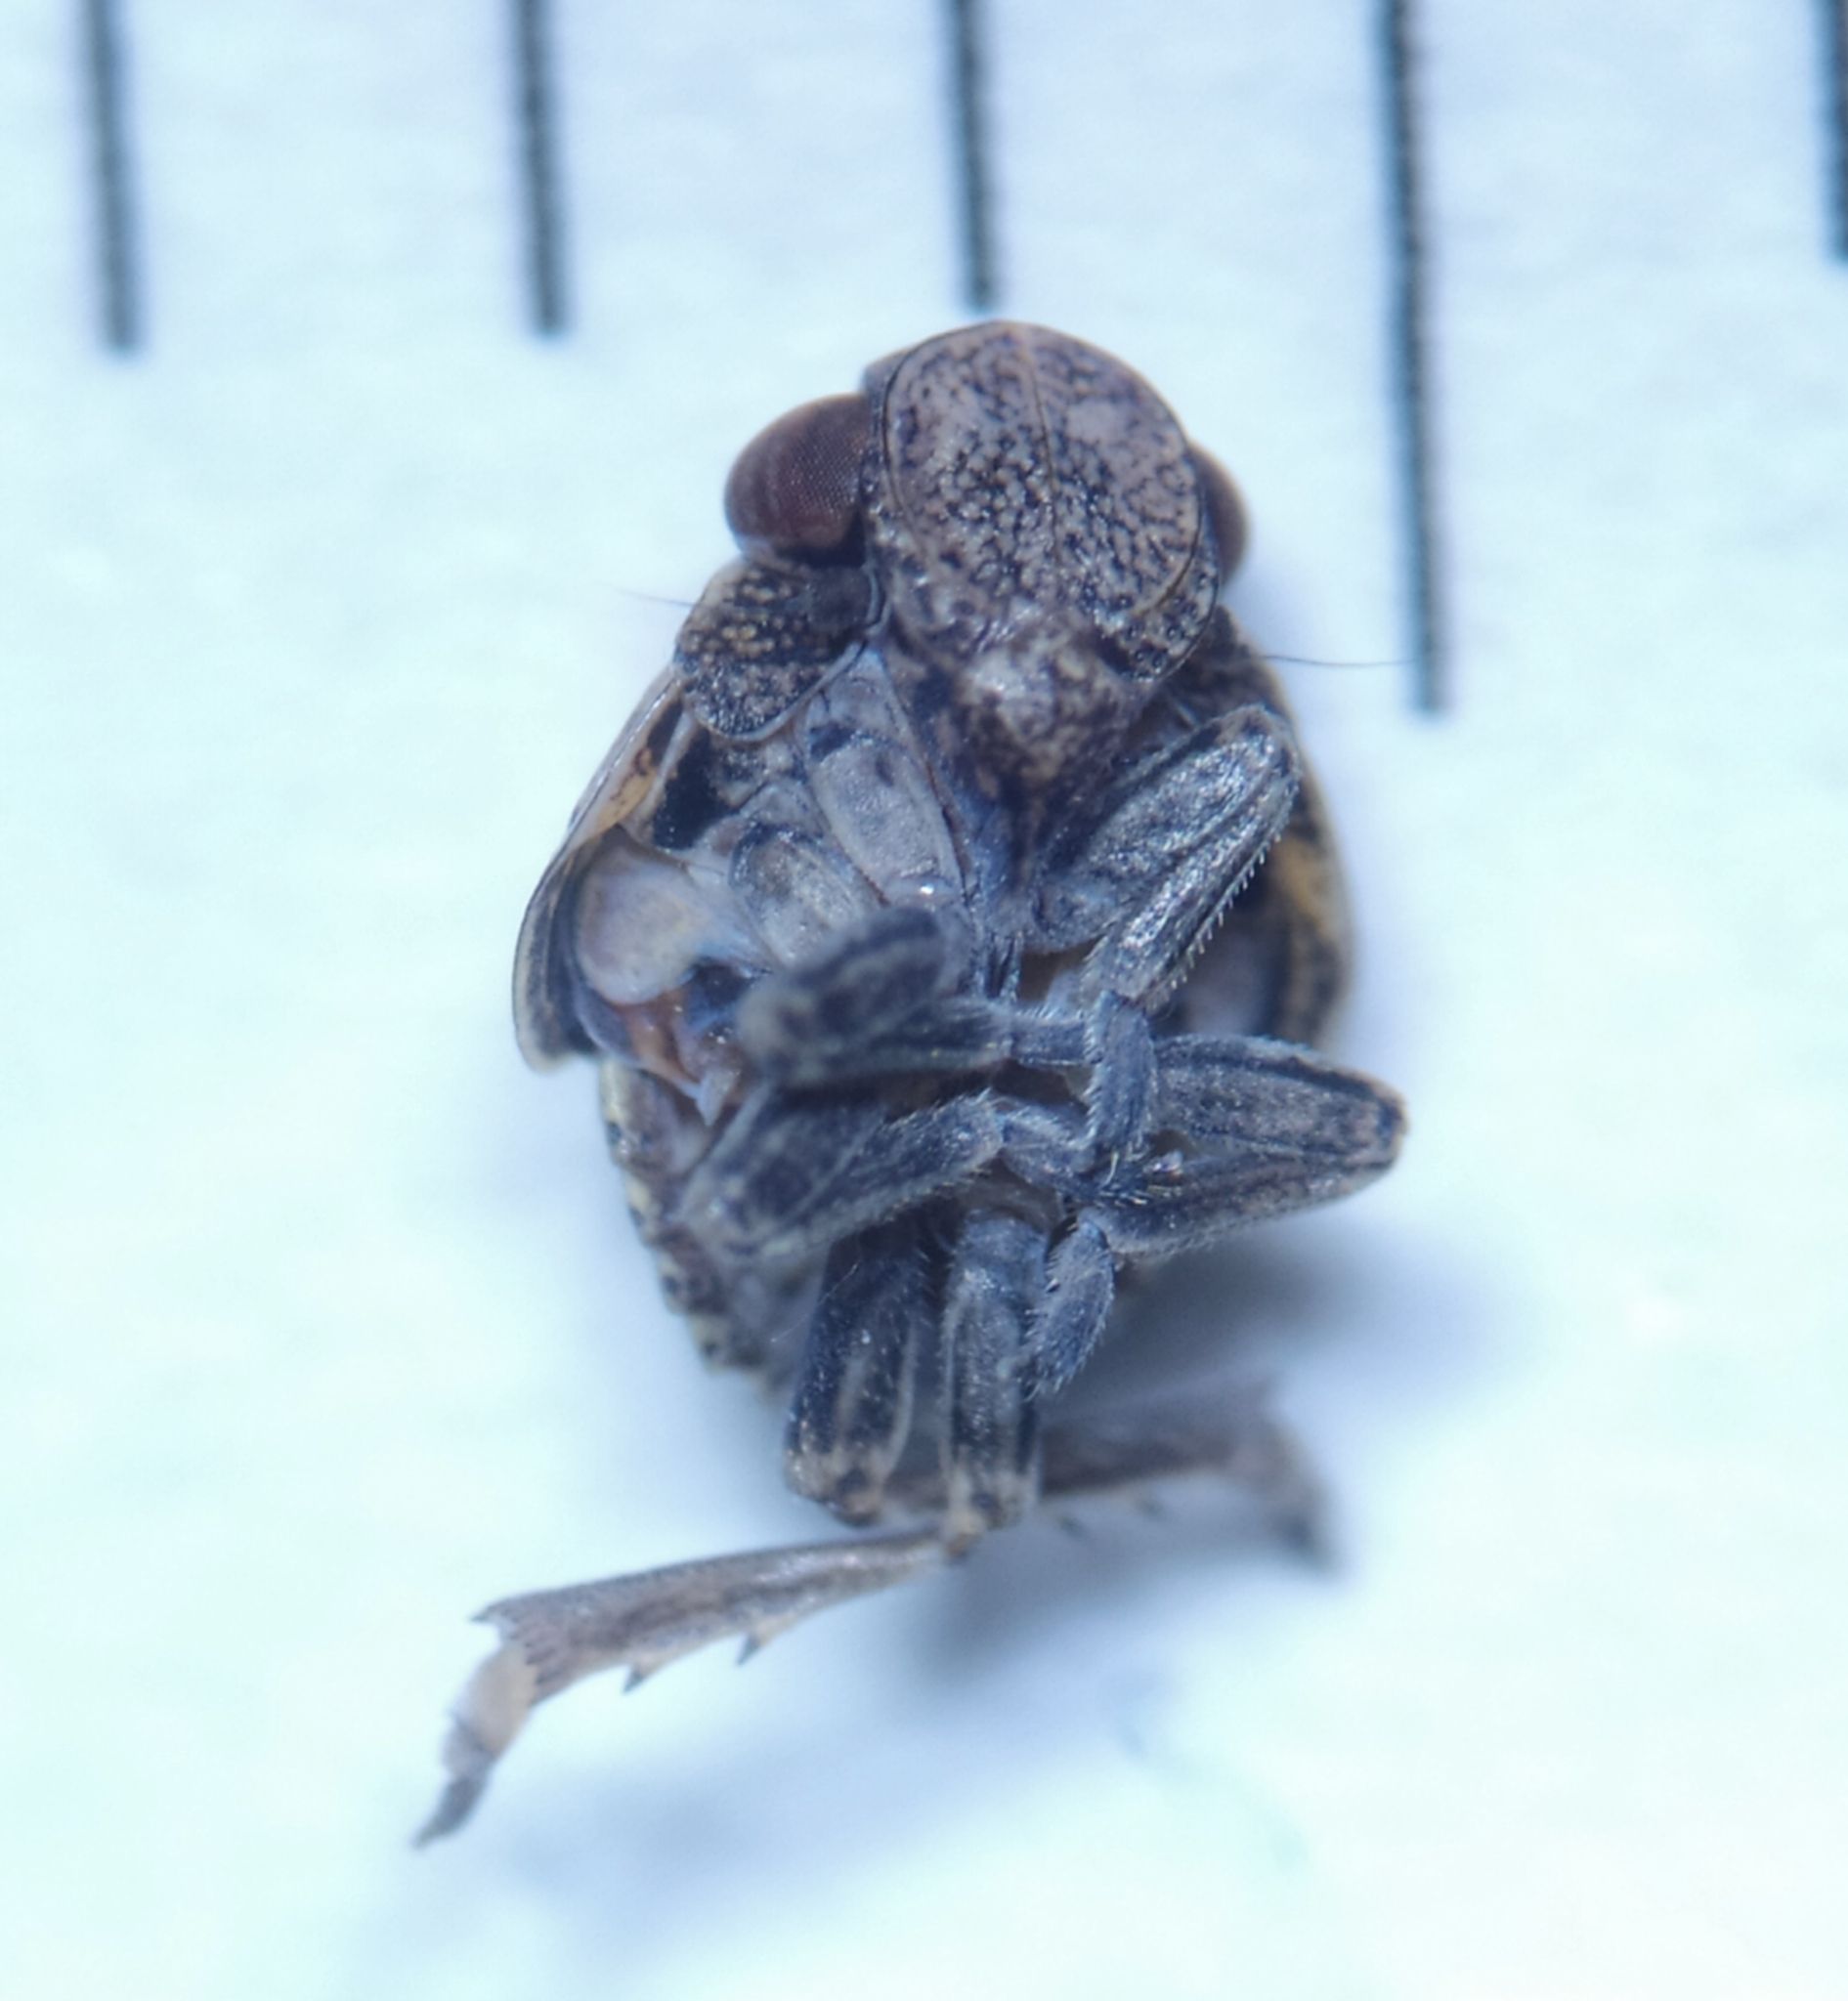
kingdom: Animalia
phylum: Arthropoda
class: Insecta
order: Hemiptera
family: Issidae
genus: Hysteropterum
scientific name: Hysteropterum reticulatum
